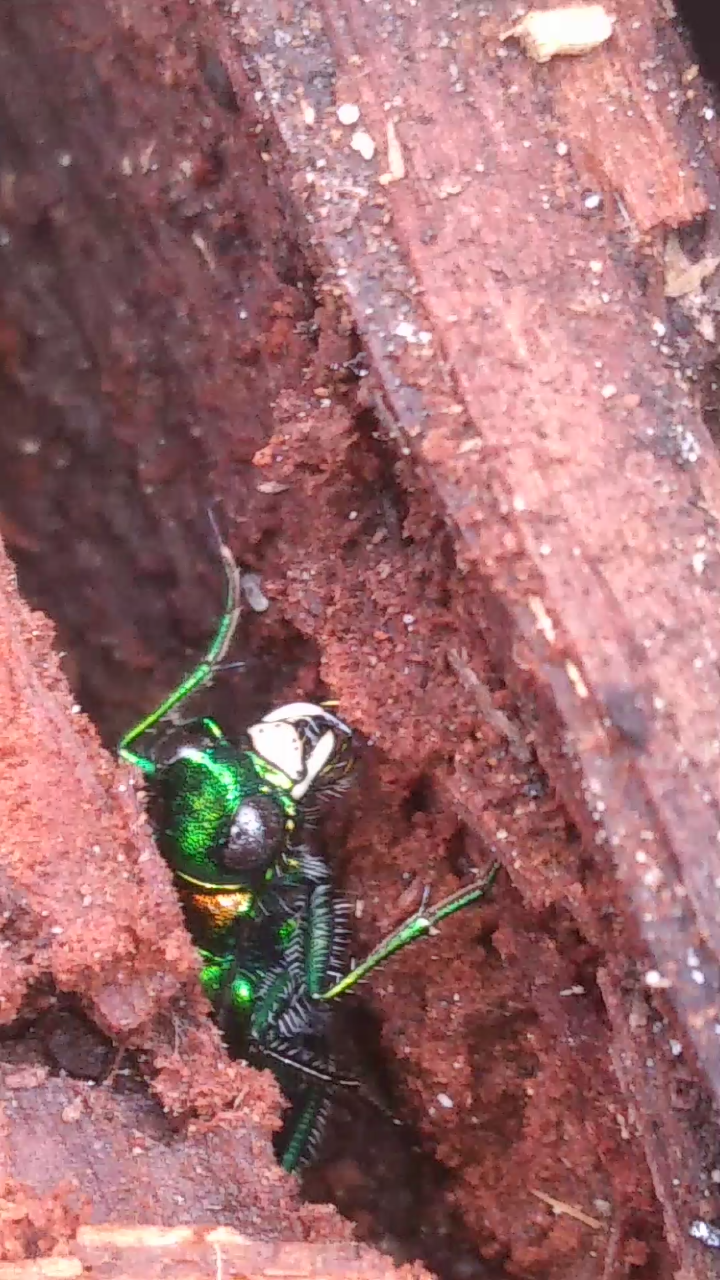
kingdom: Animalia
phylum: Arthropoda
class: Insecta
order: Coleoptera
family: Carabidae
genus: Cicindela
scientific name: Cicindela sexguttata
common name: Six-spotted tiger beetle
